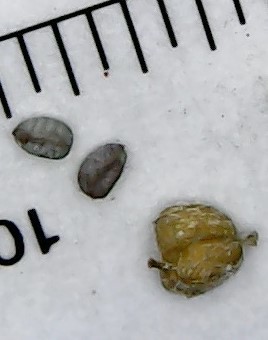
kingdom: Plantae
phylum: Tracheophyta
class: Magnoliopsida
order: Malpighiales
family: Euphorbiaceae
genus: Euphorbia
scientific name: Euphorbia maculata
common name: Spotted spurge
